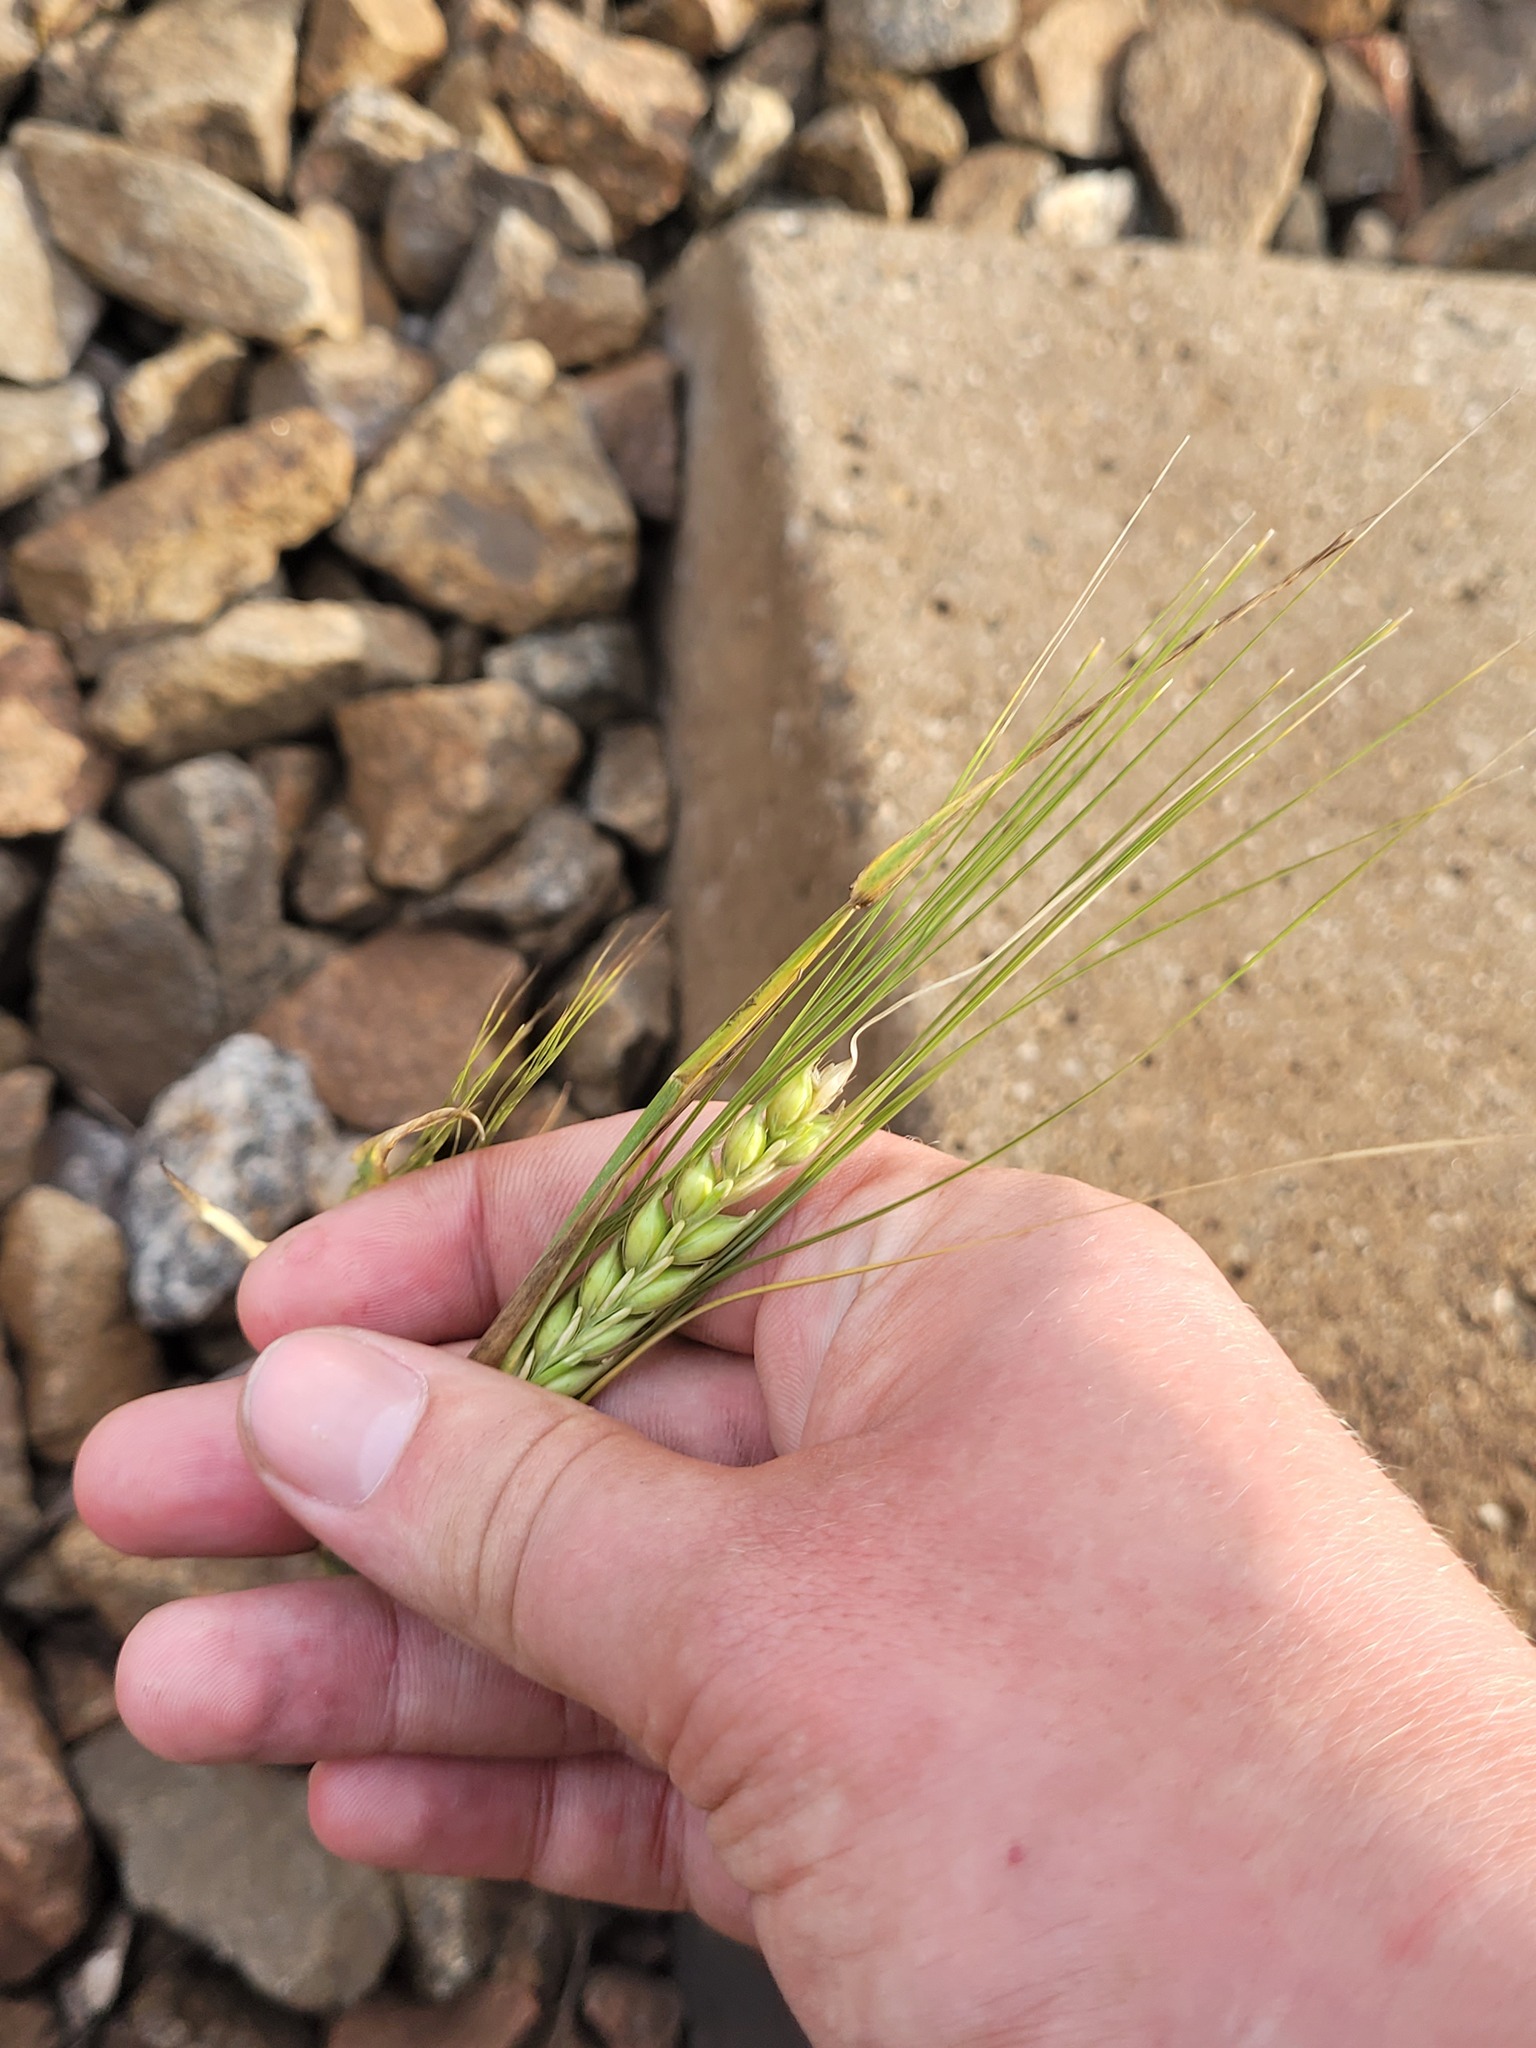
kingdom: Plantae
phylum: Tracheophyta
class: Liliopsida
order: Poales
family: Poaceae
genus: Hordeum
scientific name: Hordeum vulgare
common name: Common barley
